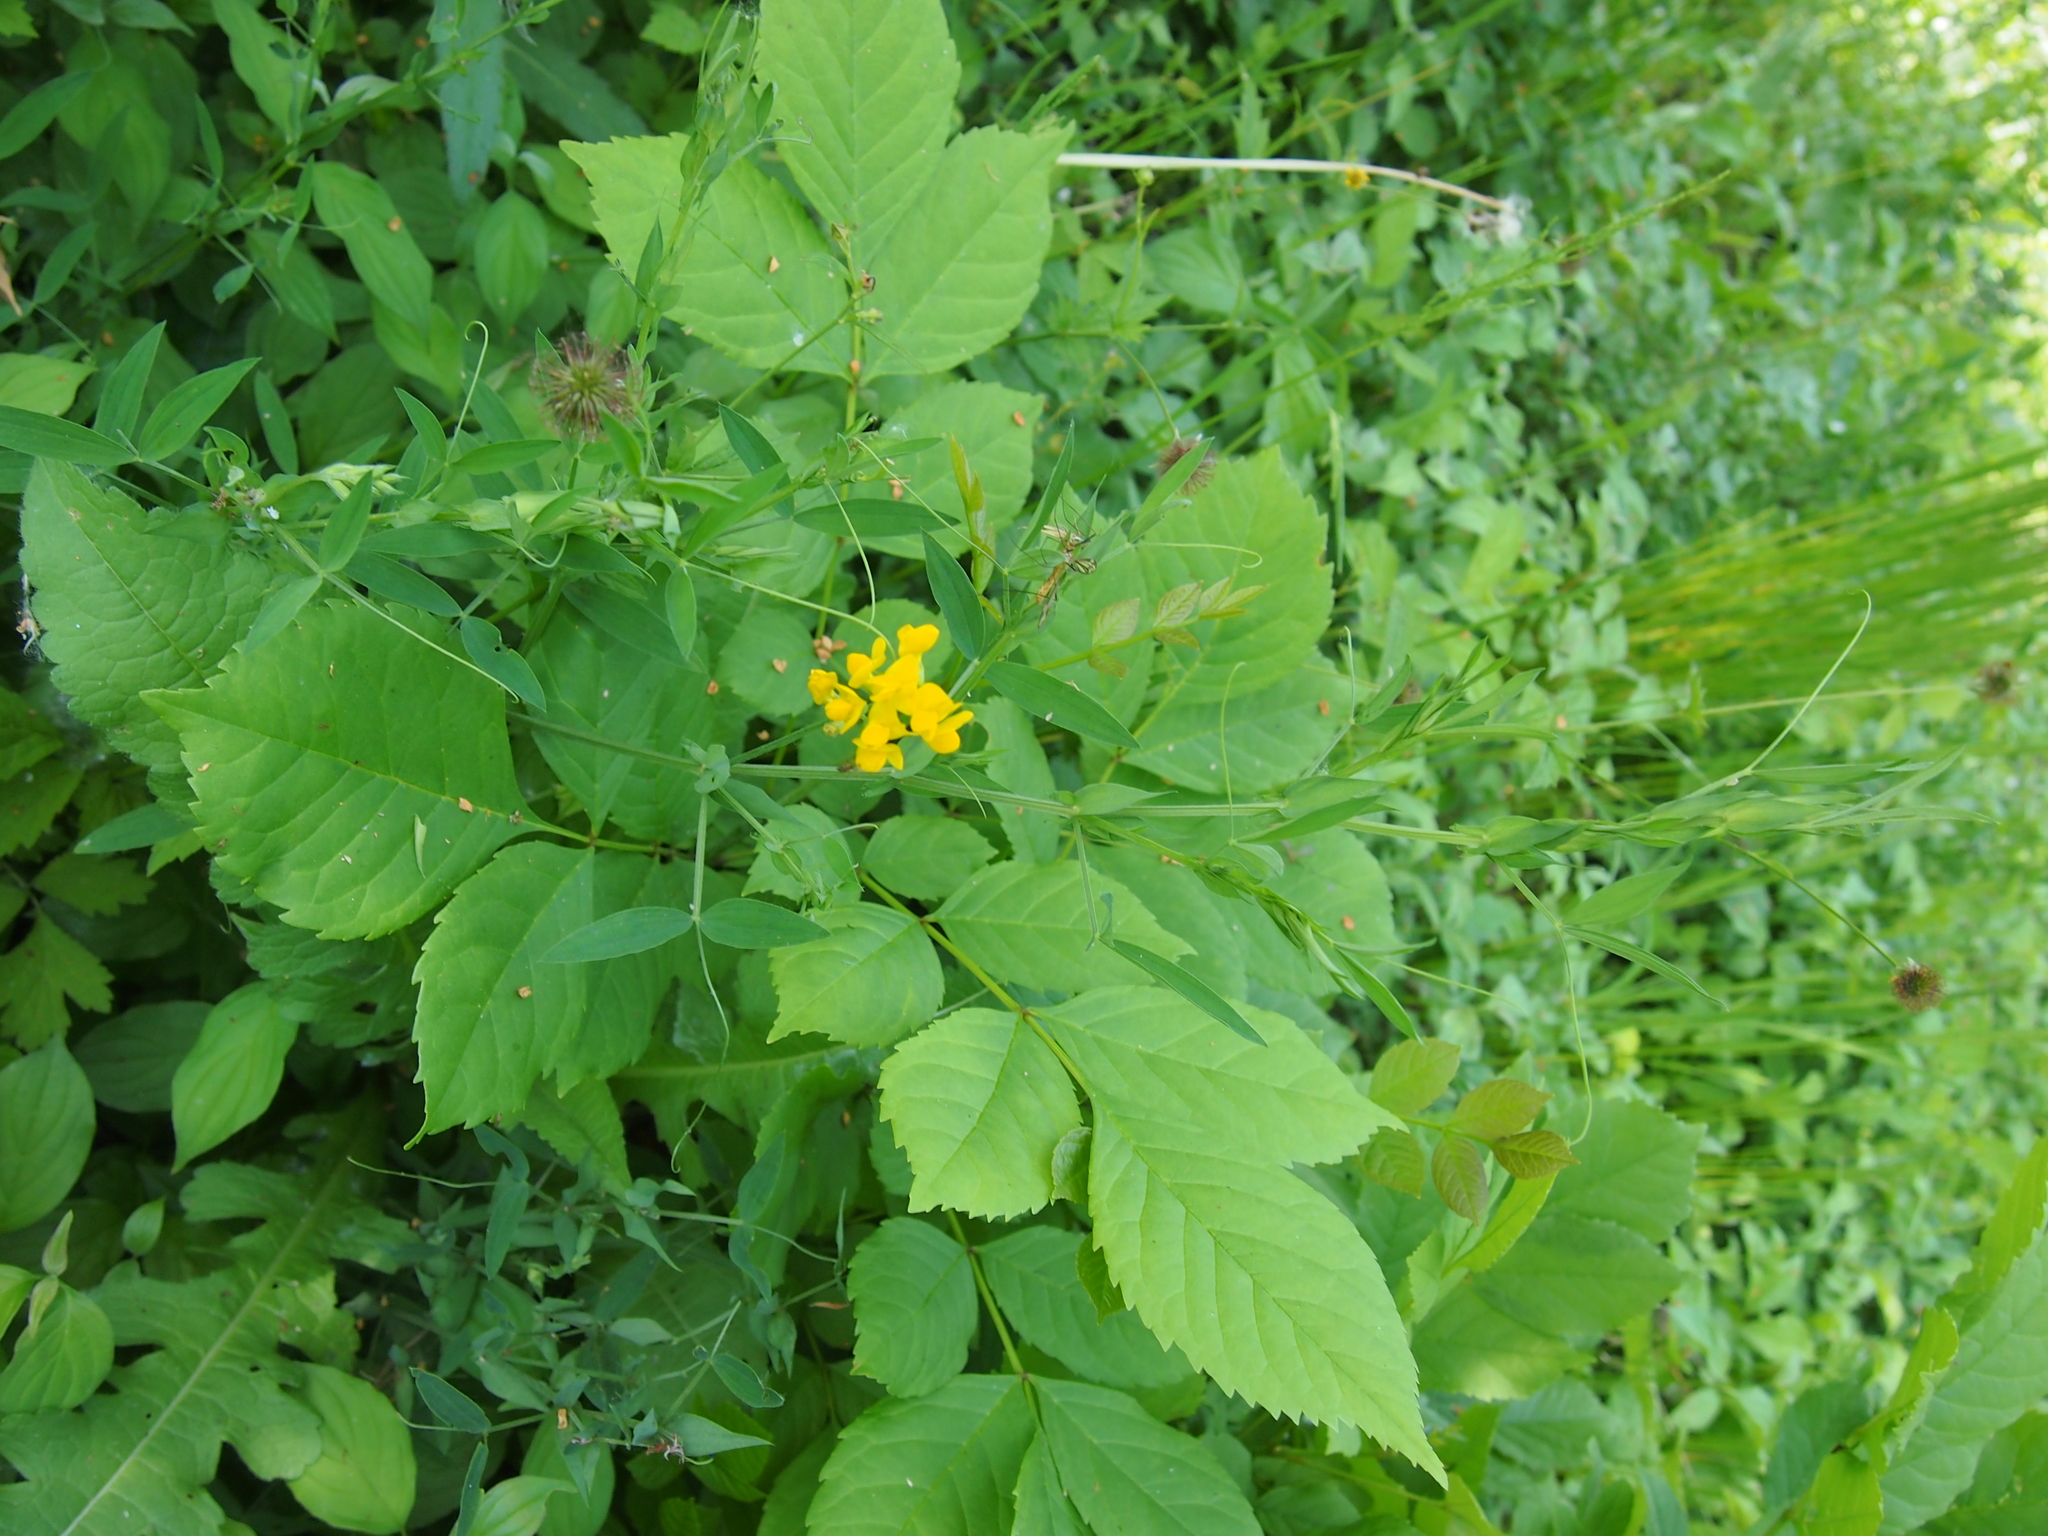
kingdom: Plantae
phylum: Tracheophyta
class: Magnoliopsida
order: Fabales
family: Fabaceae
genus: Lathyrus
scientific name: Lathyrus pratensis
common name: Meadow vetchling
